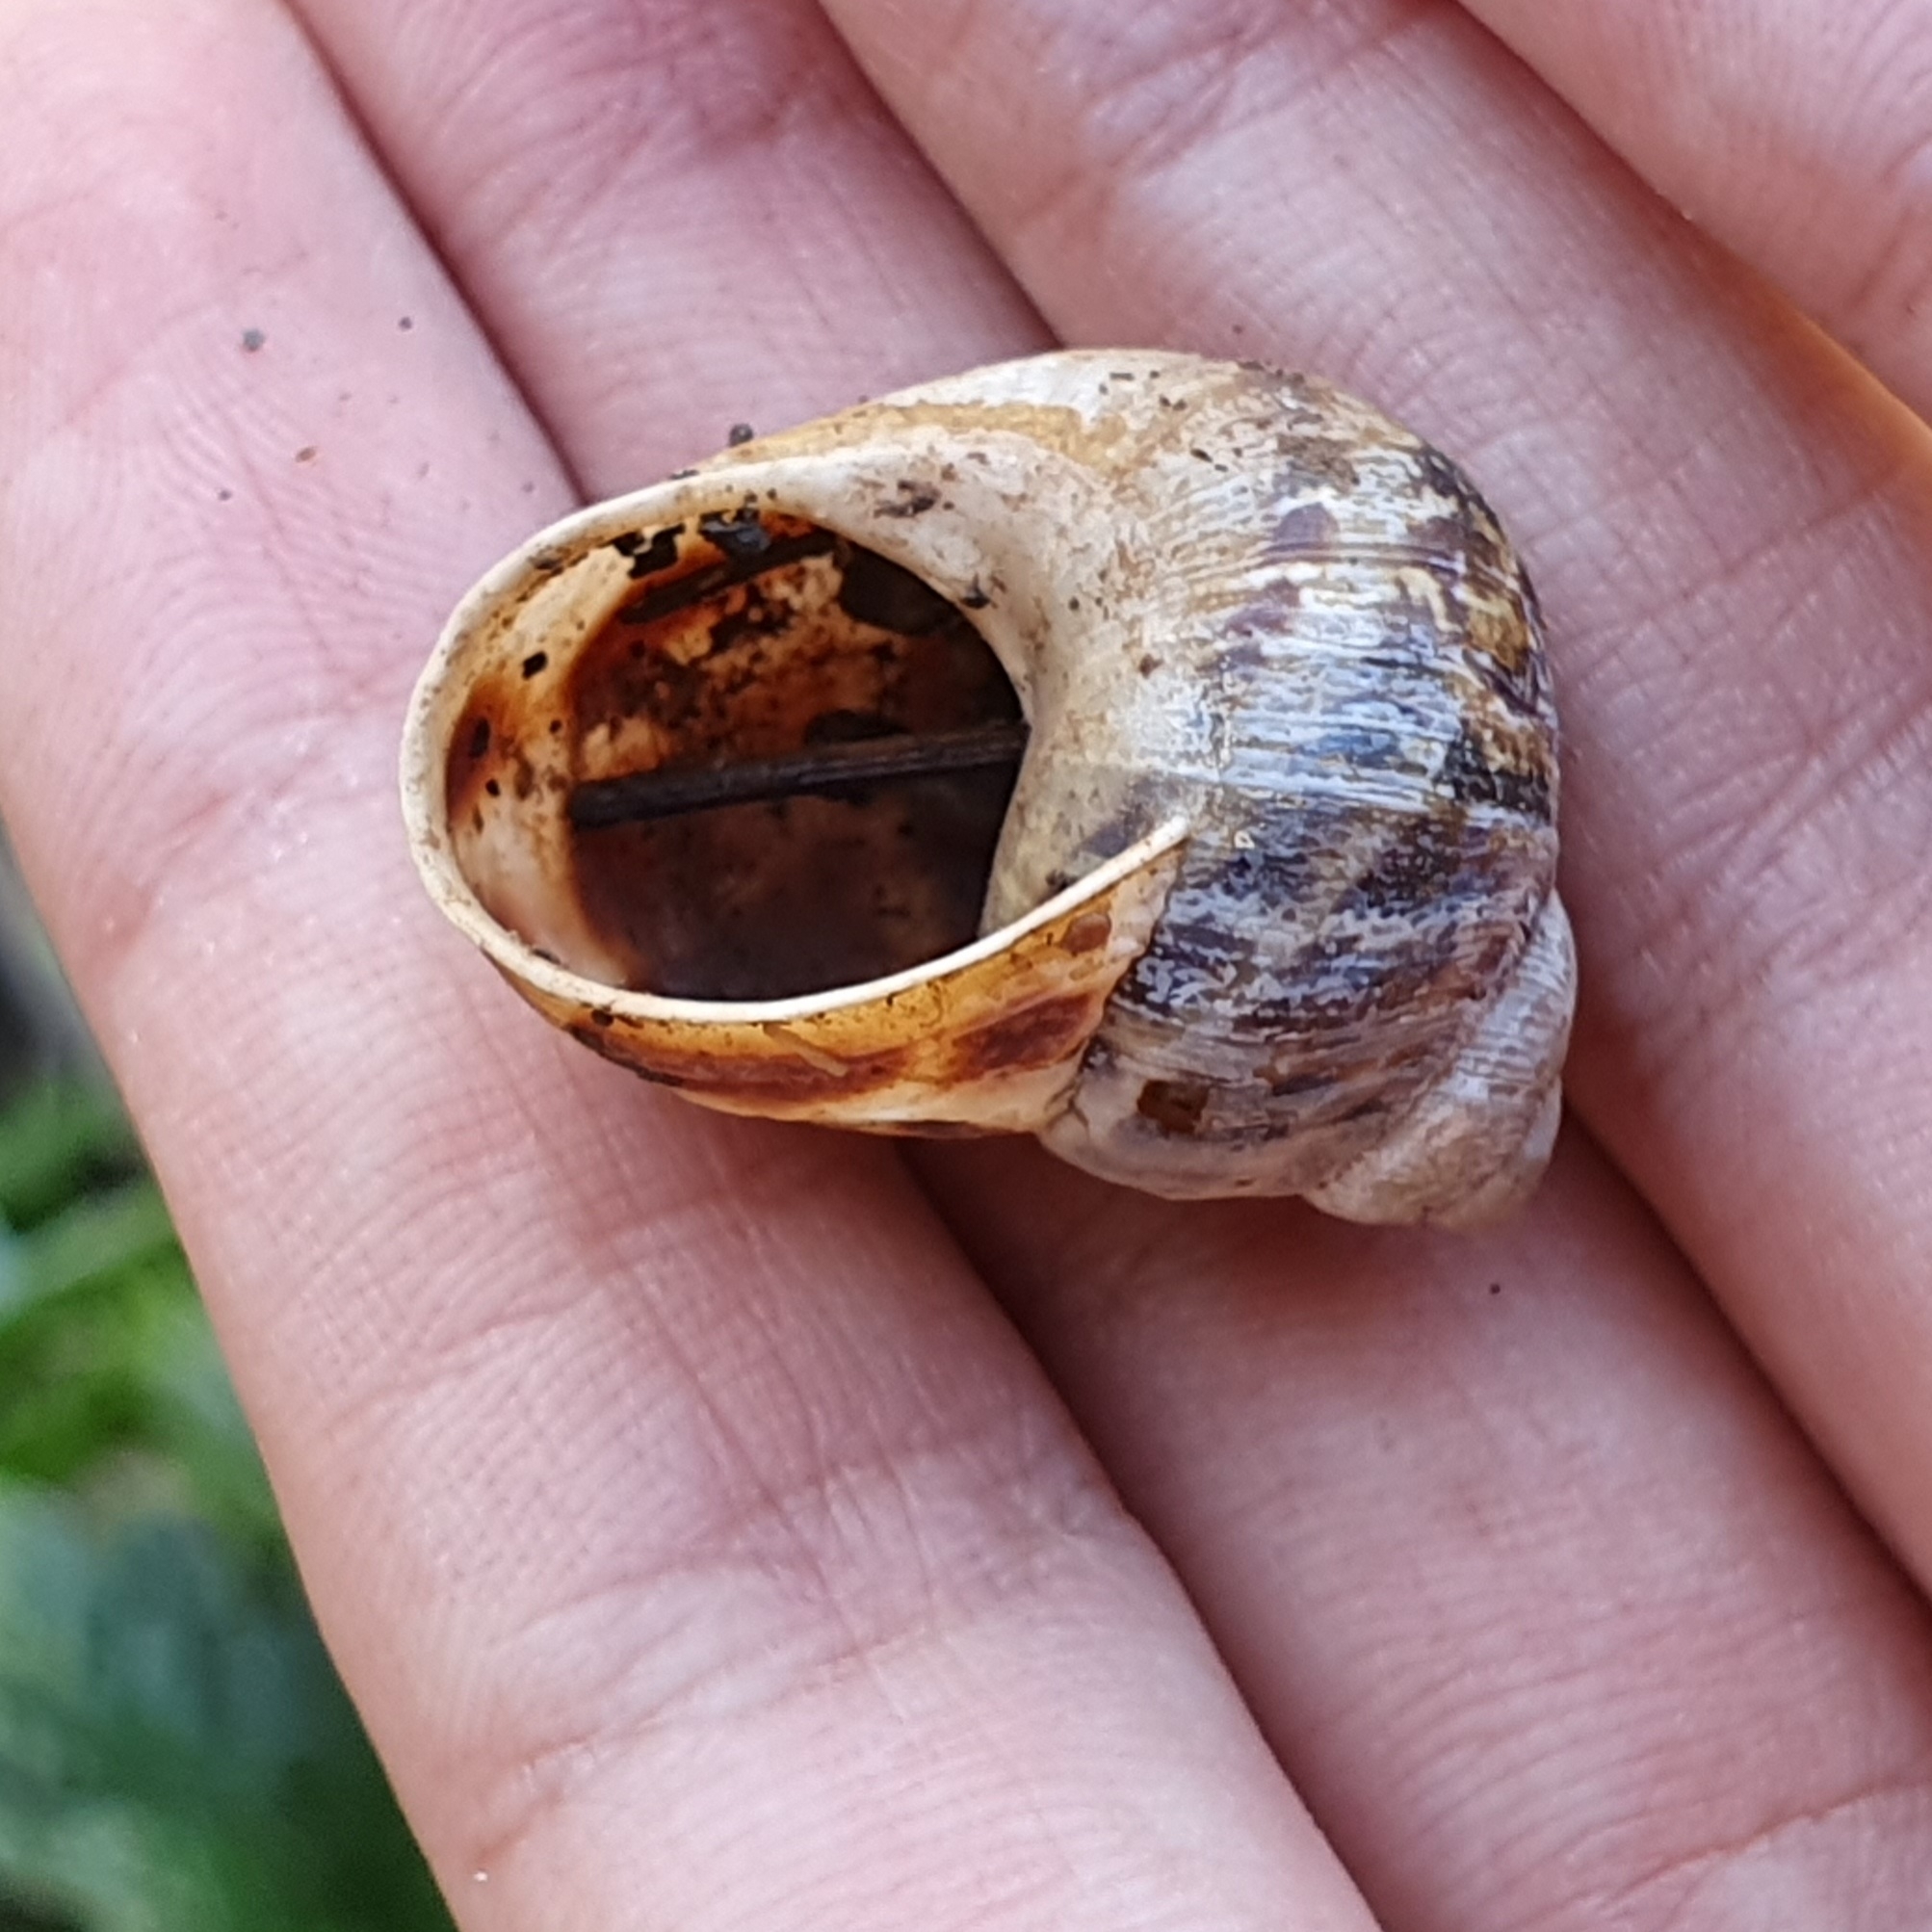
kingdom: Animalia
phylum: Mollusca
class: Gastropoda
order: Stylommatophora
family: Helicidae
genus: Cornu
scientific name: Cornu aspersum
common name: Brown garden snail
